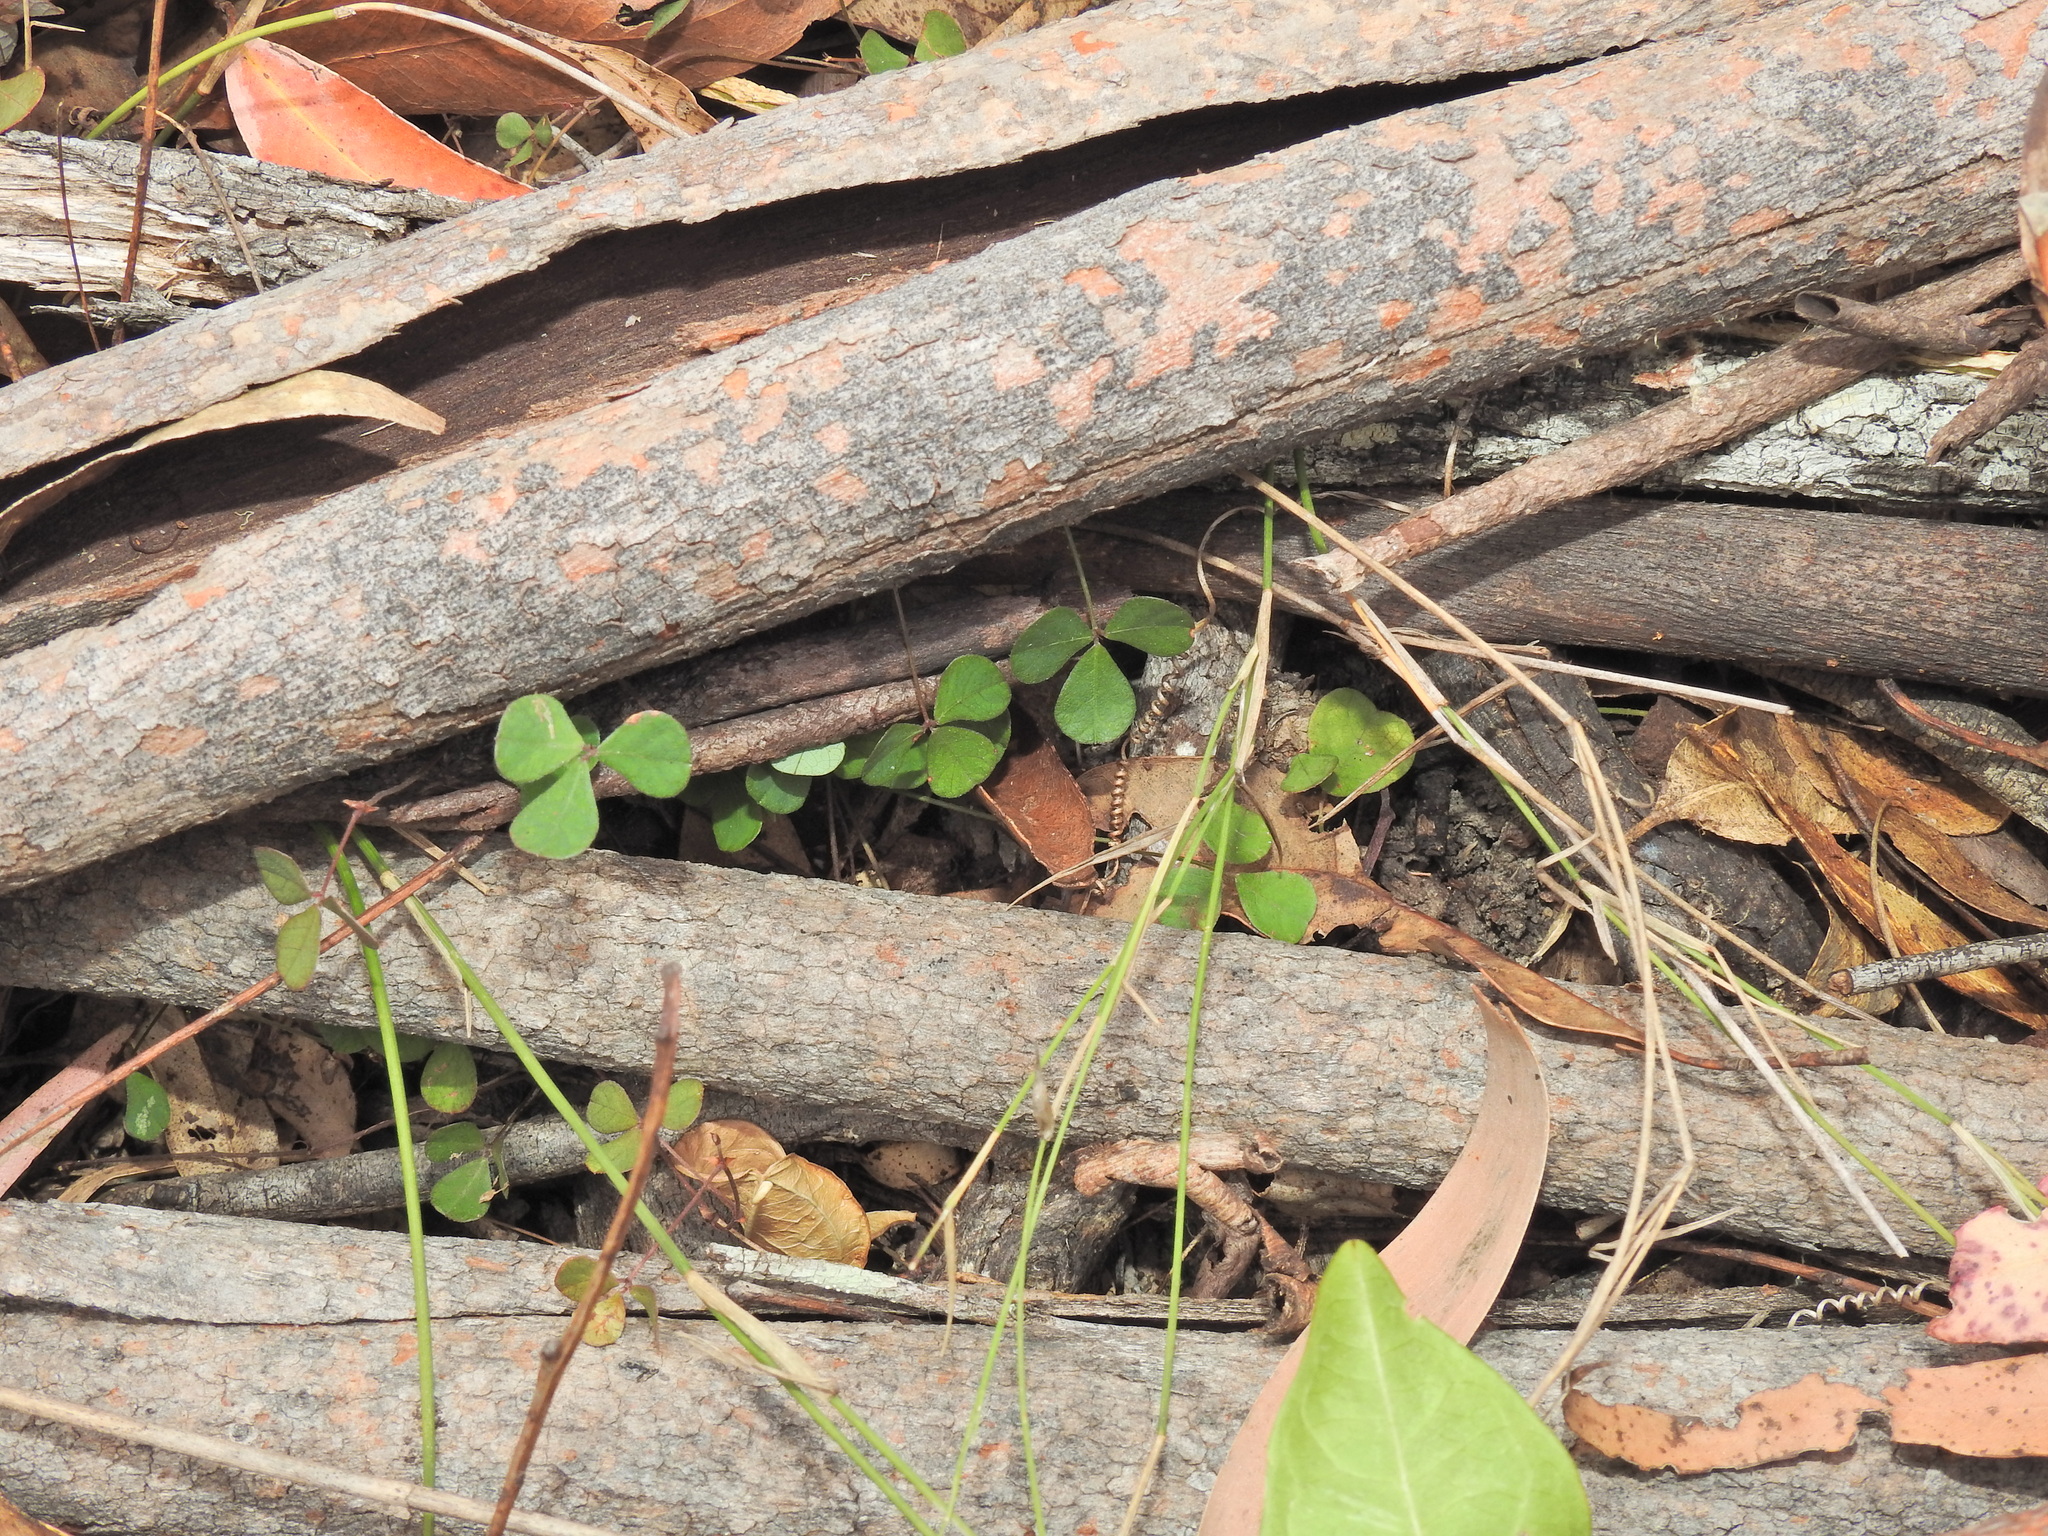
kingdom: Plantae
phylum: Tracheophyta
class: Magnoliopsida
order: Fabales
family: Fabaceae
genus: Pullenia
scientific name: Pullenia gunnii
